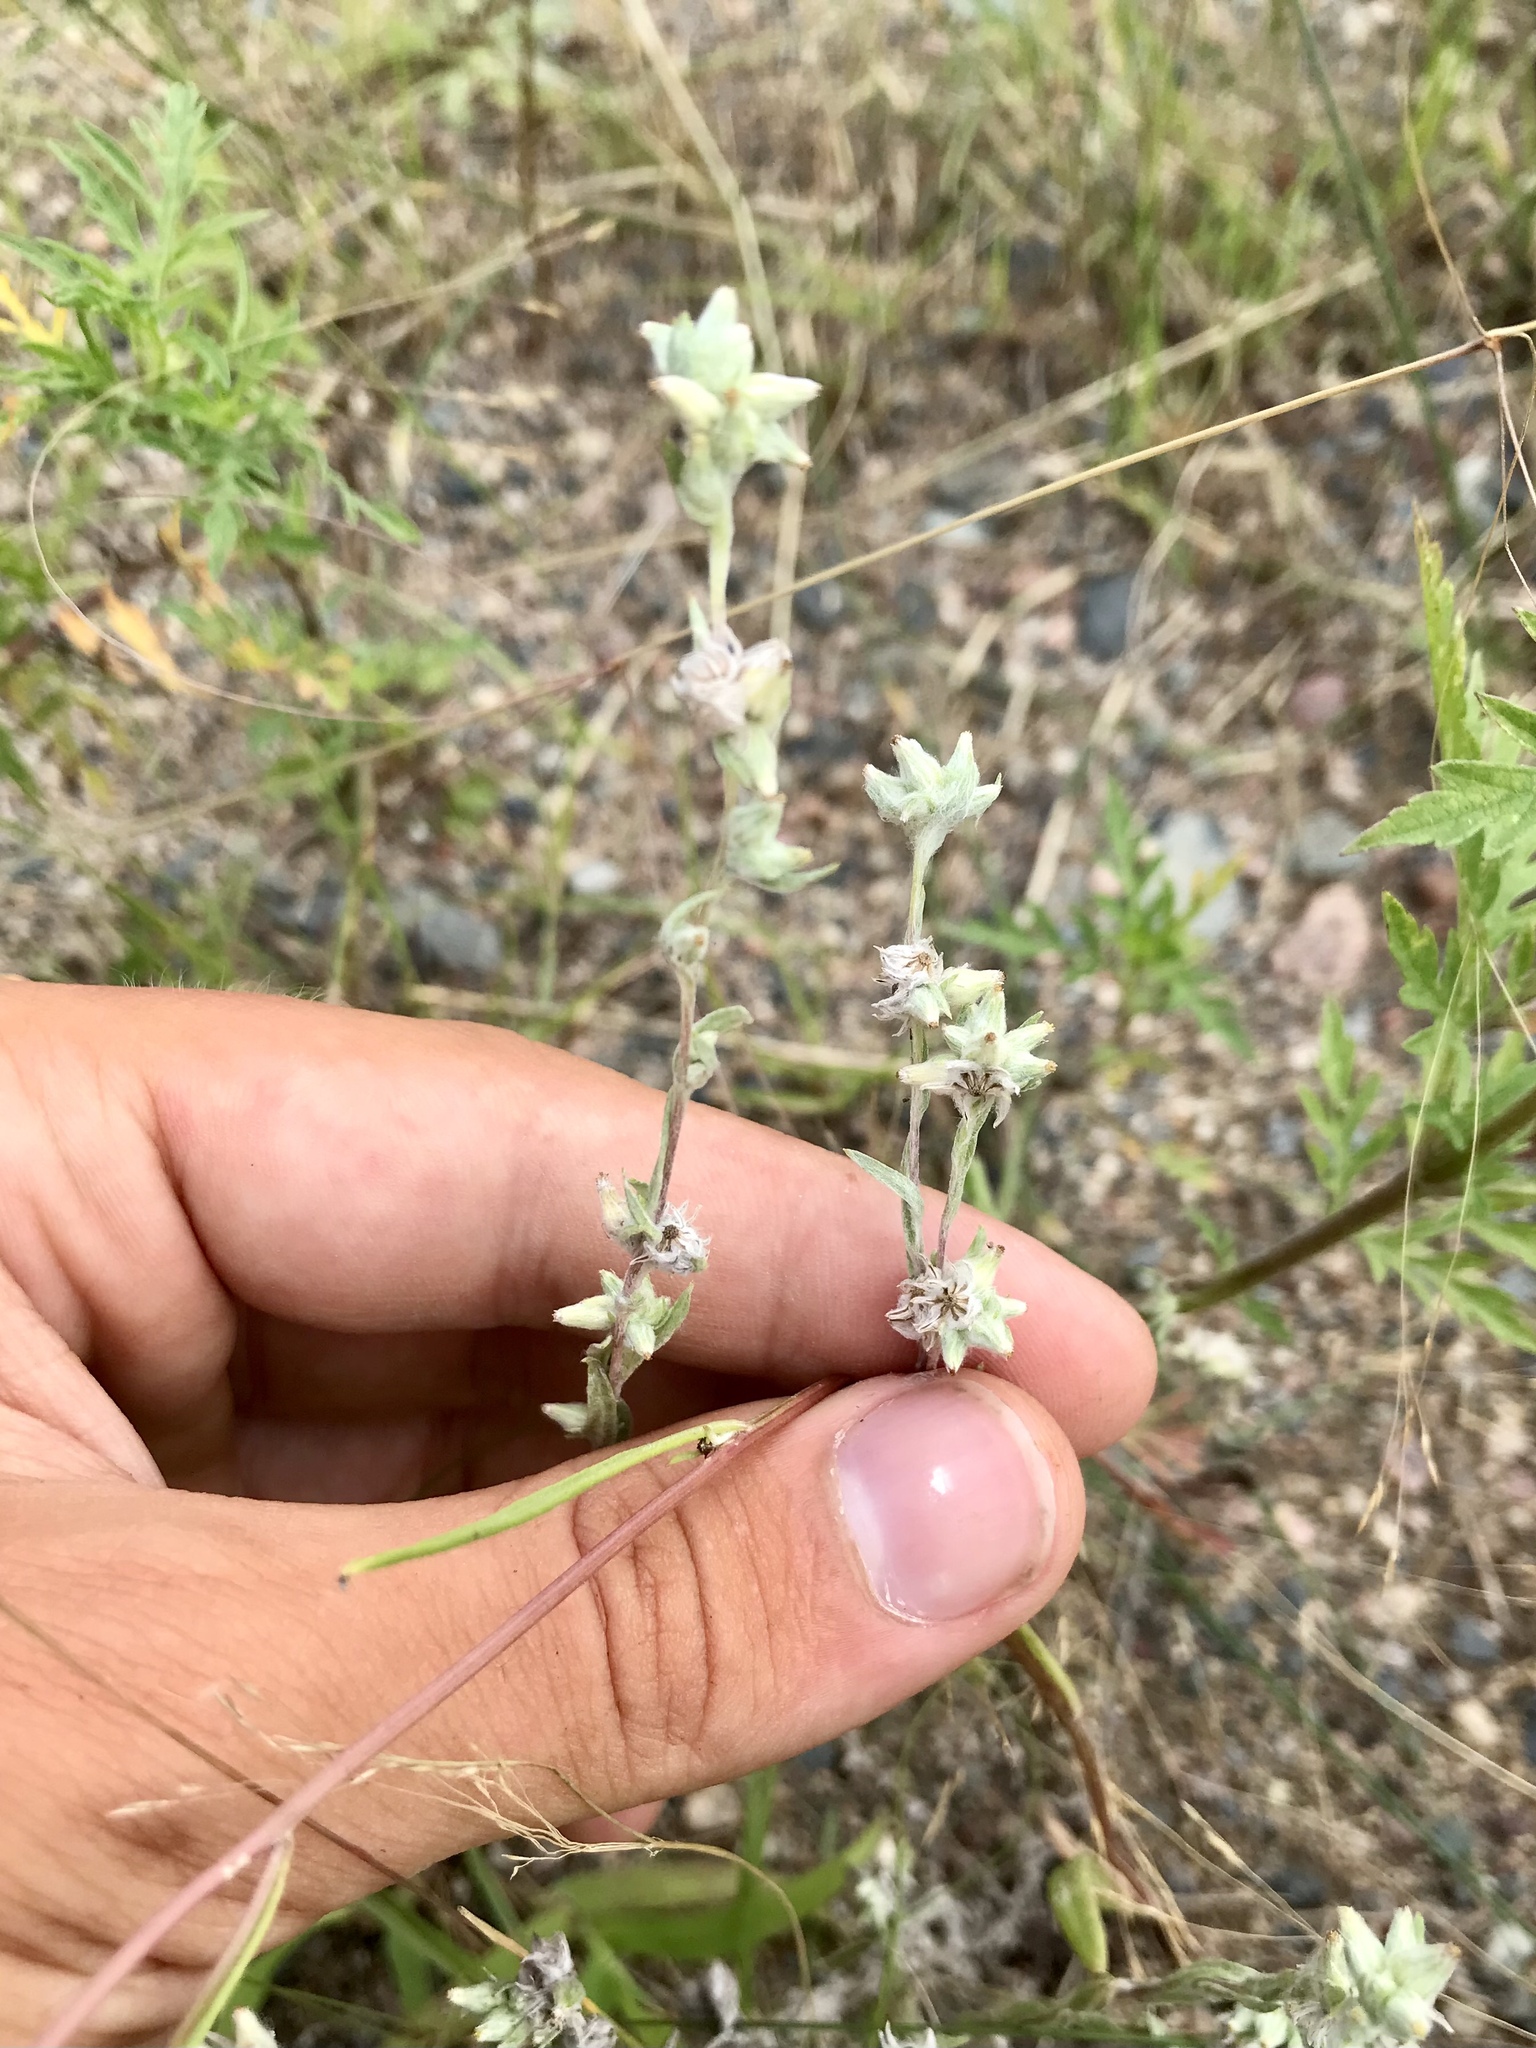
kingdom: Plantae
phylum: Tracheophyta
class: Magnoliopsida
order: Asterales
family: Asteraceae
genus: Filago
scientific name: Filago arvensis
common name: Field cudweed
